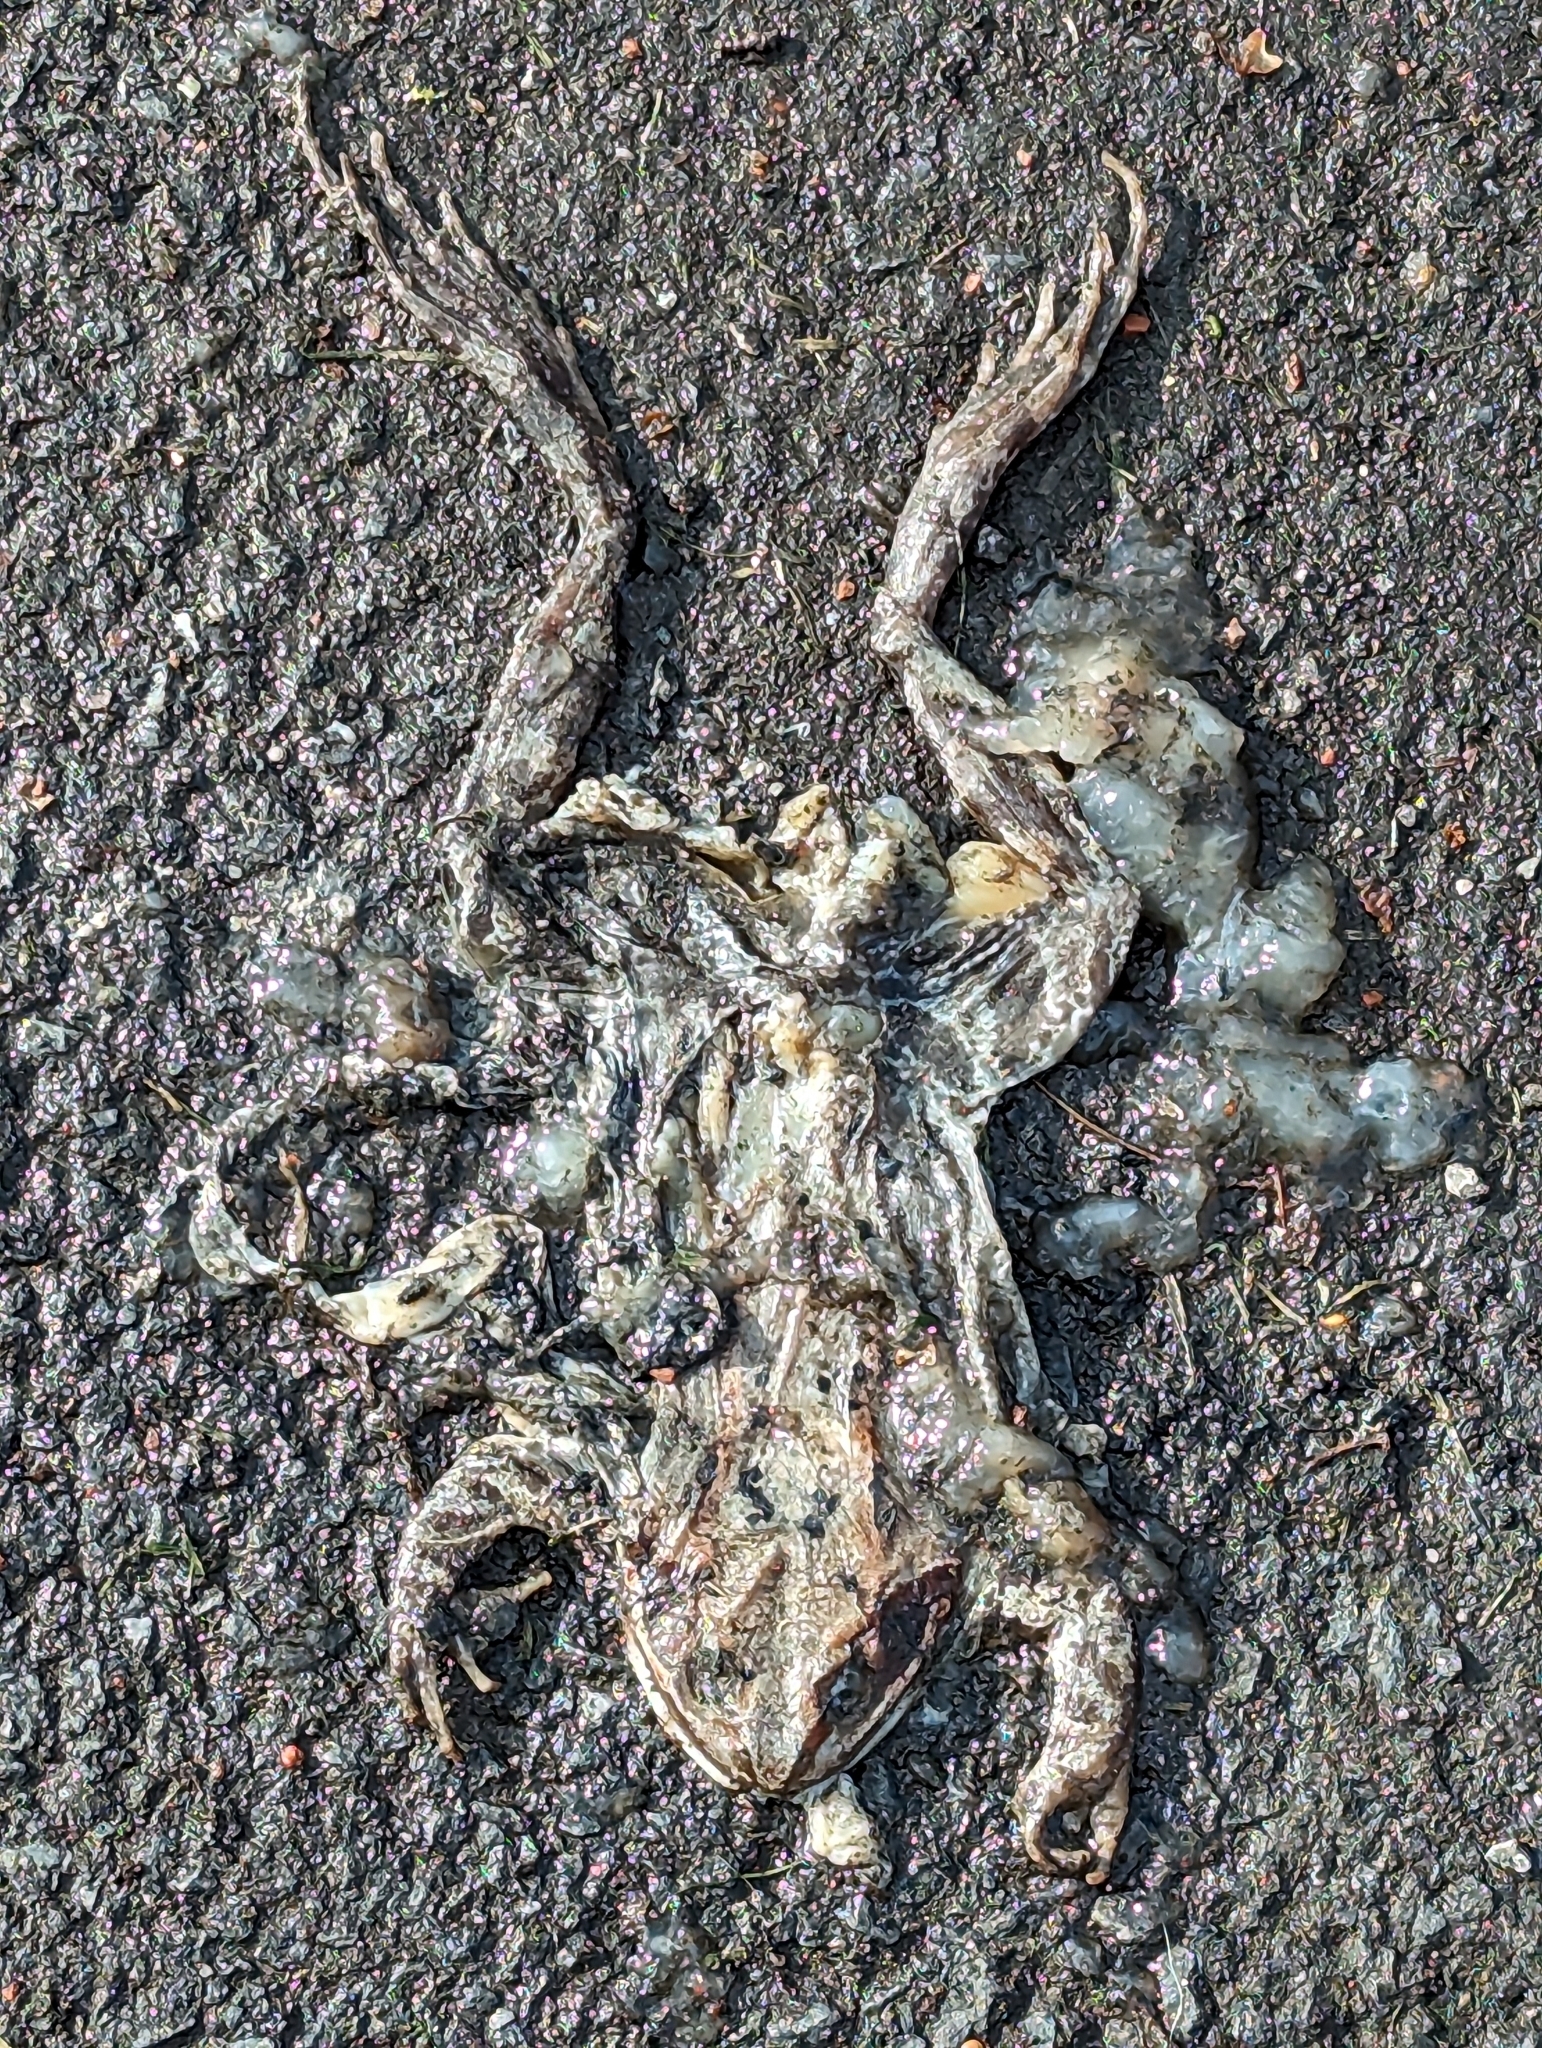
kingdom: Animalia
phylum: Chordata
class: Amphibia
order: Anura
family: Ranidae
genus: Rana
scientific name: Rana temporaria
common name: Common frog
